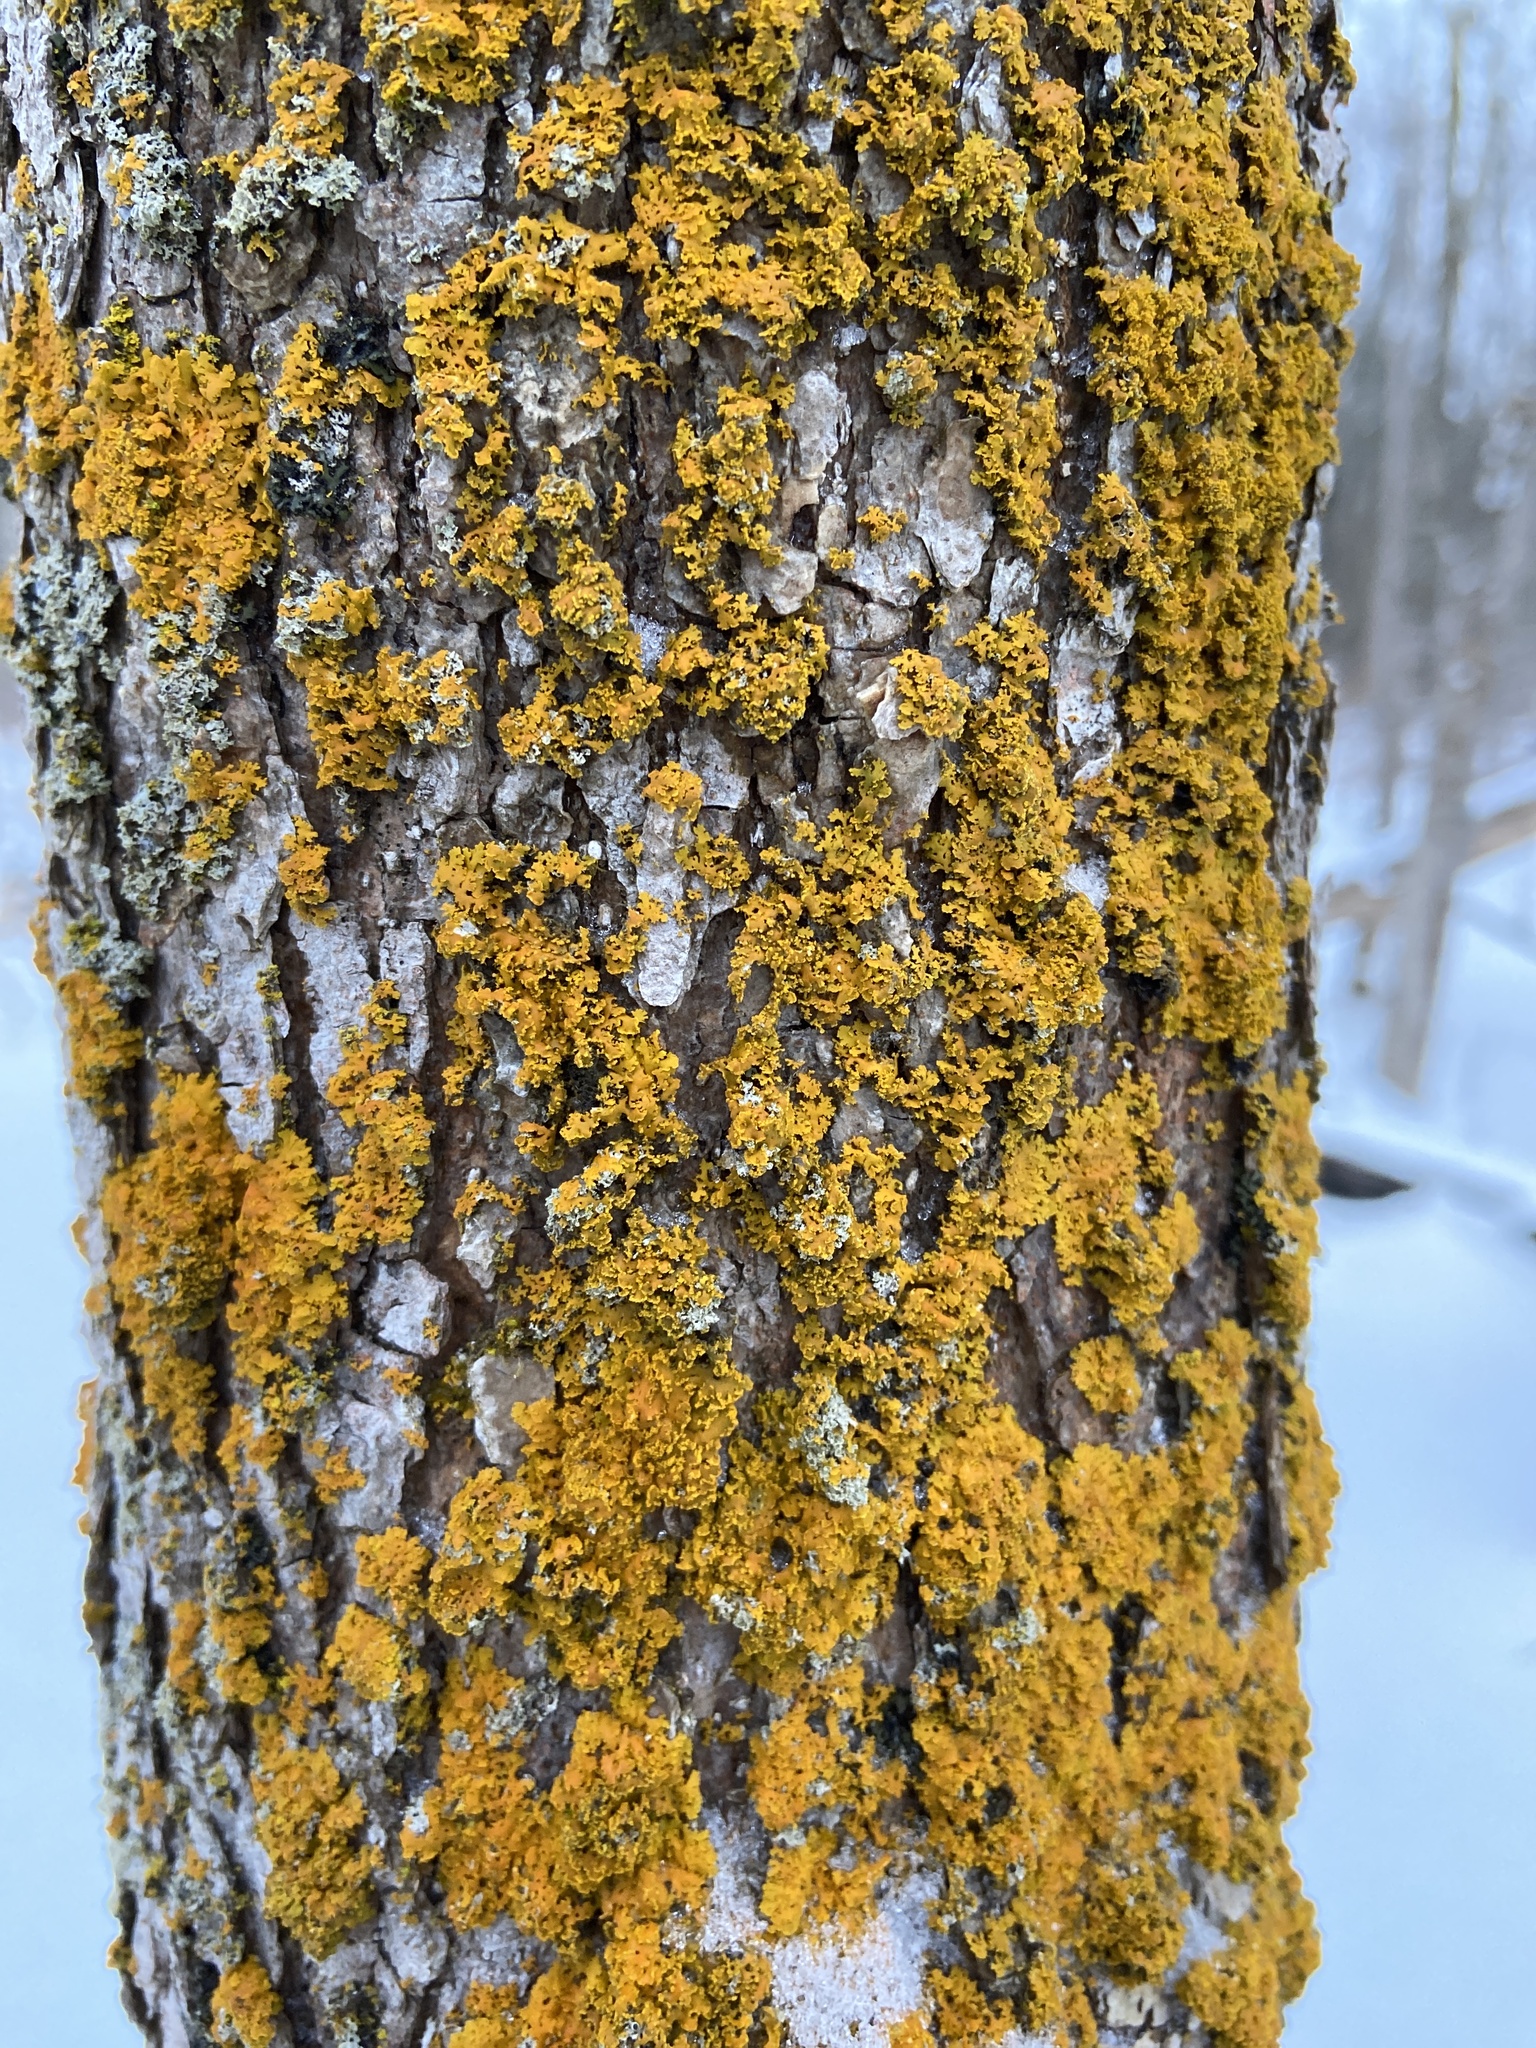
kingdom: Fungi
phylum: Ascomycota
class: Lecanoromycetes
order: Teloschistales
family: Teloschistaceae
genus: Xanthoria
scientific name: Xanthoria ulophyllodes
